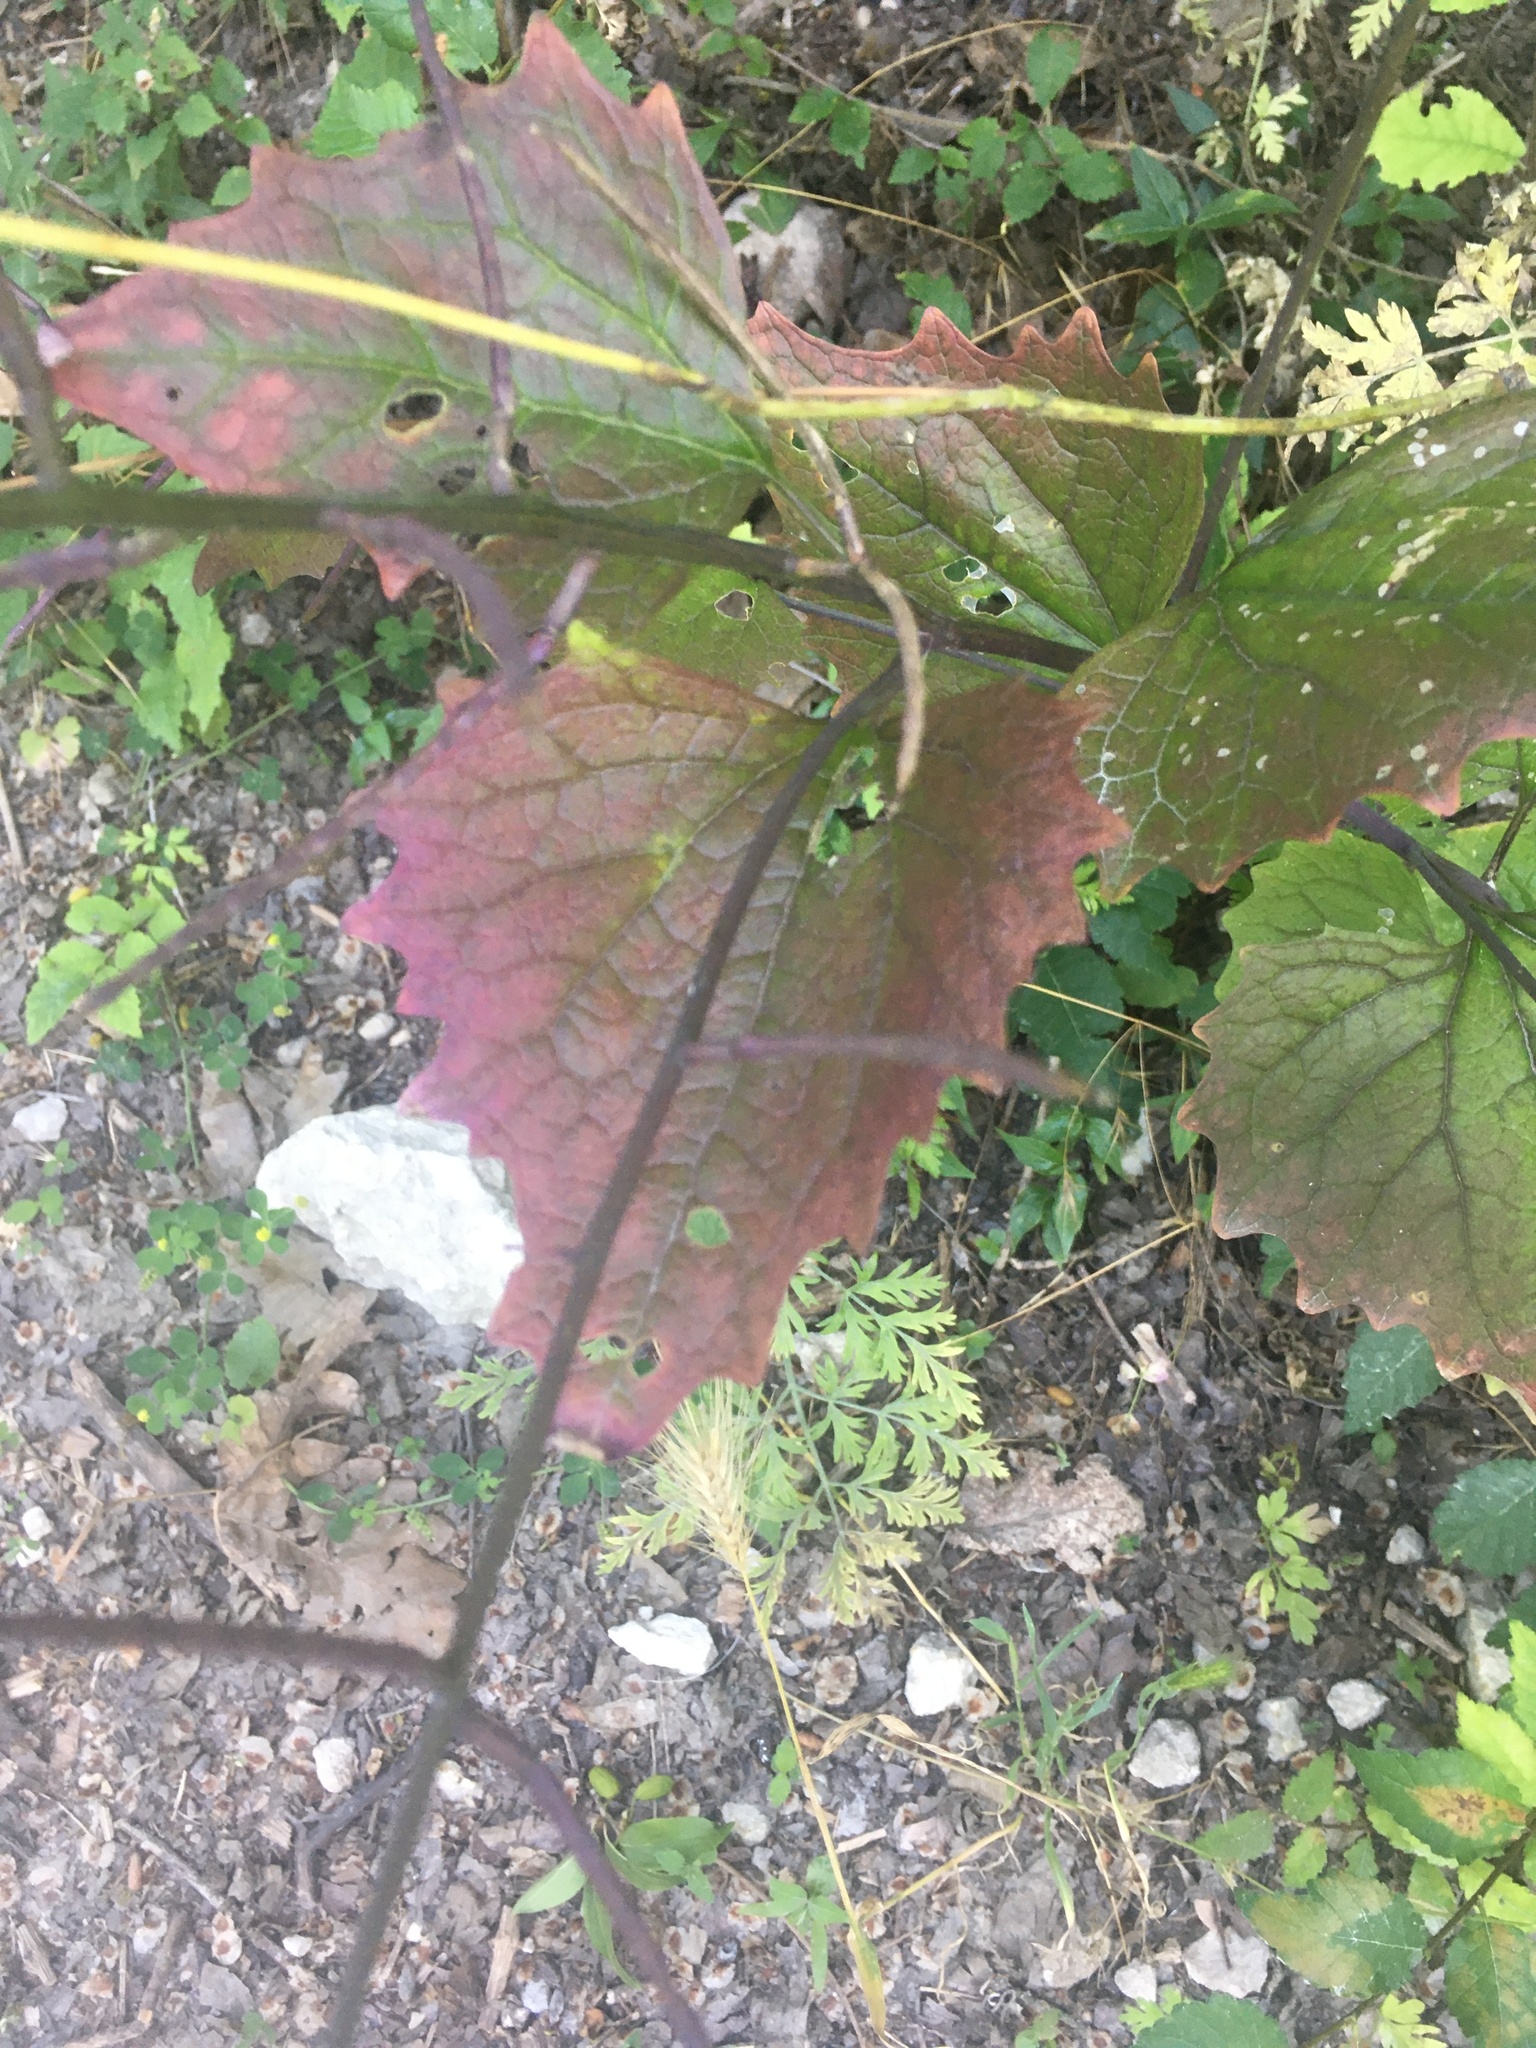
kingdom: Plantae
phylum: Tracheophyta
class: Magnoliopsida
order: Brassicales
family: Brassicaceae
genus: Alliaria
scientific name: Alliaria petiolata
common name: Garlic mustard
